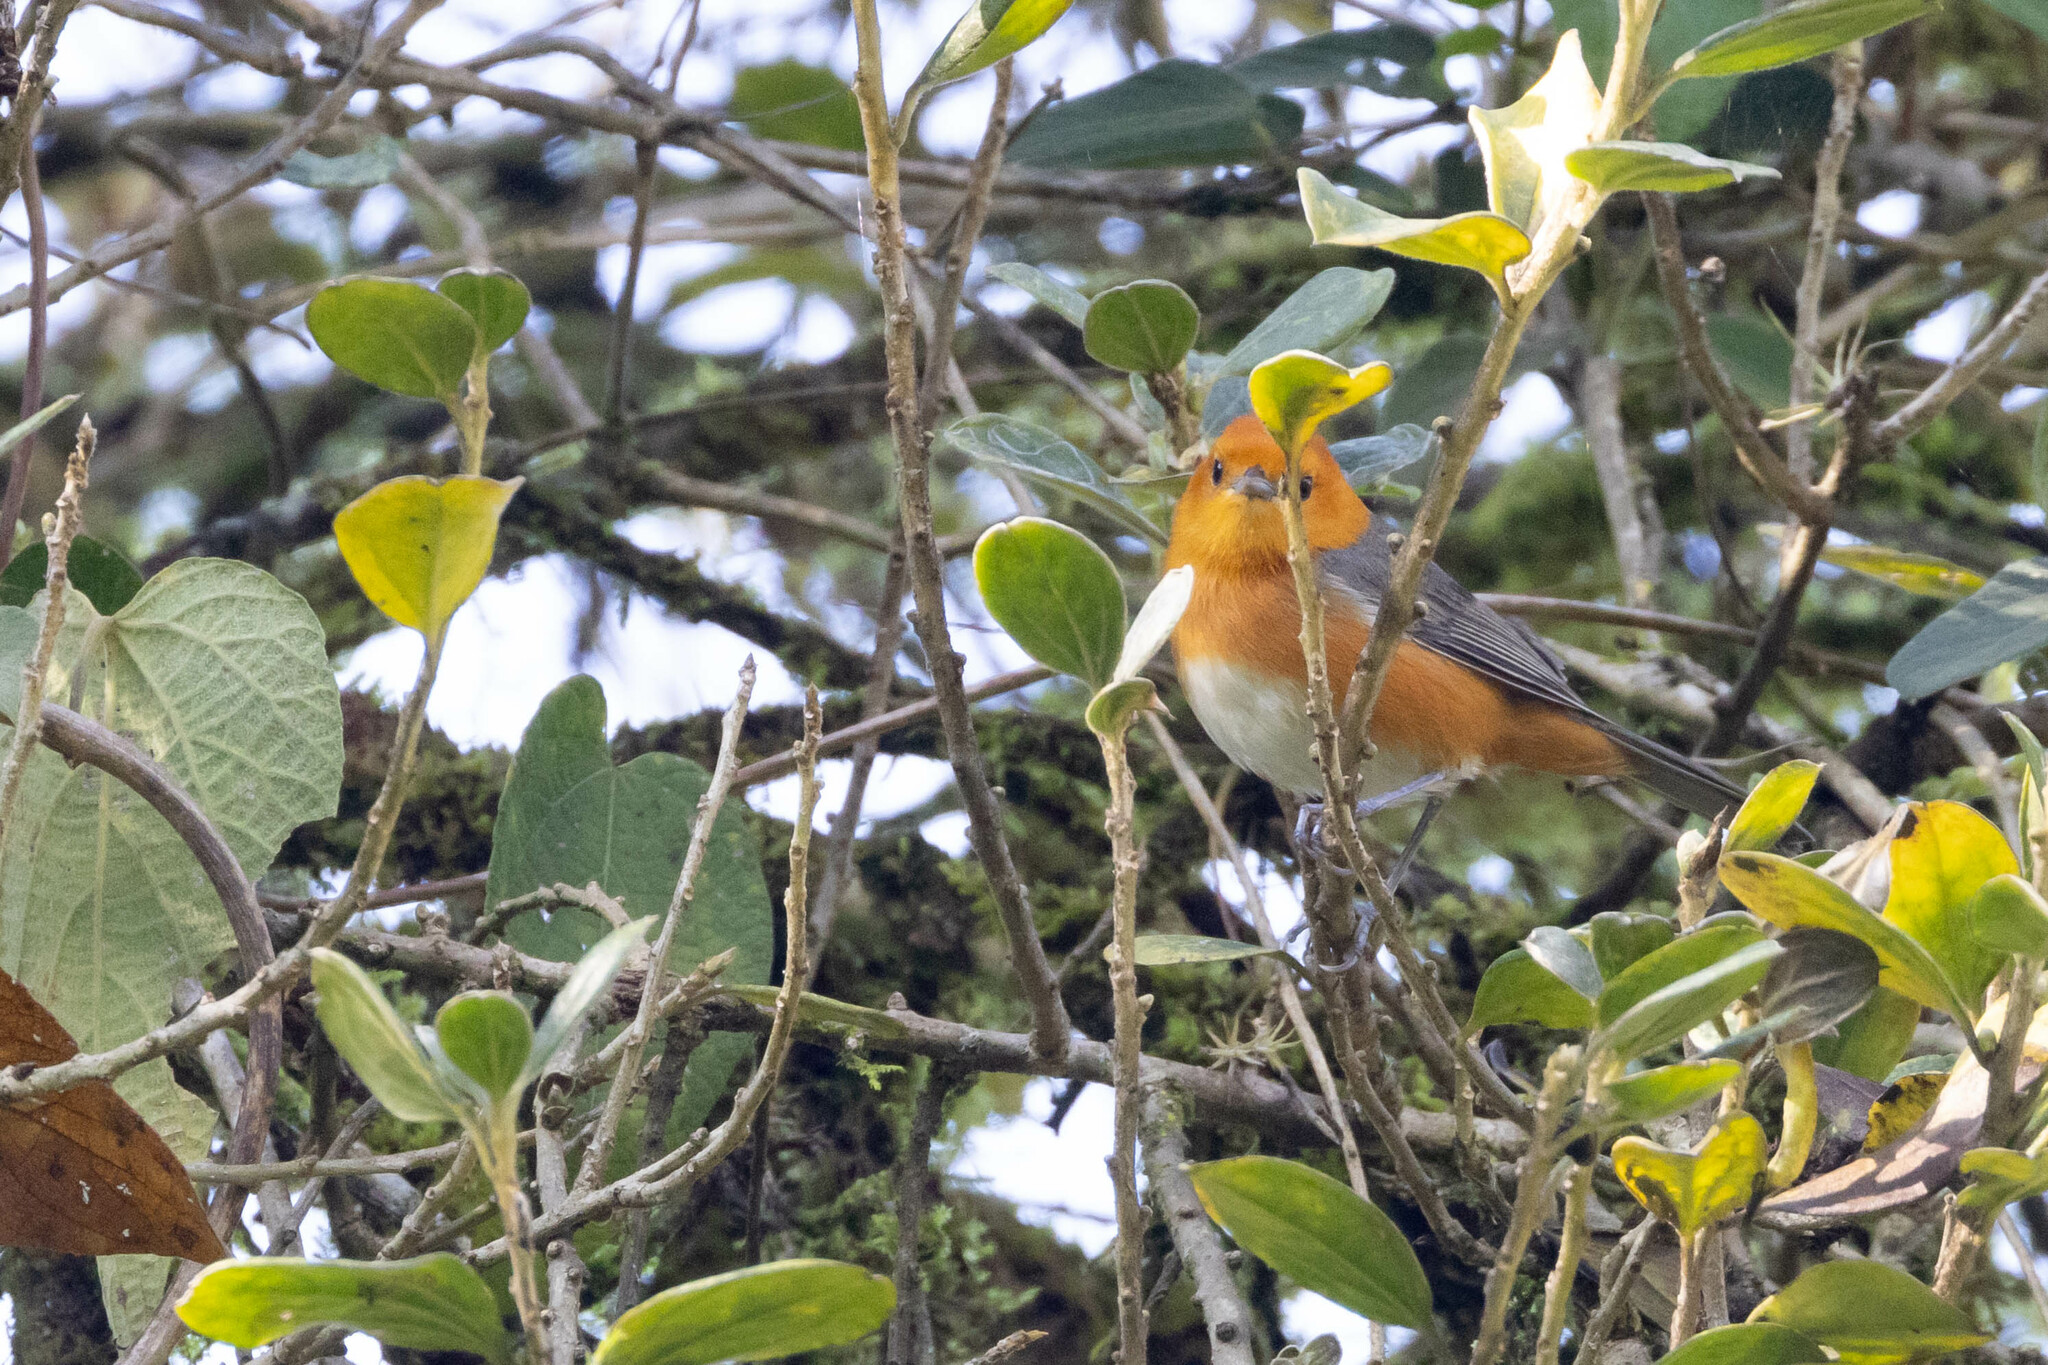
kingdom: Animalia
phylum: Chordata
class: Aves
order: Passeriformes
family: Thraupidae
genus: Thlypopsis
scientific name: Thlypopsis ornata
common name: Rufous-chested tanager
